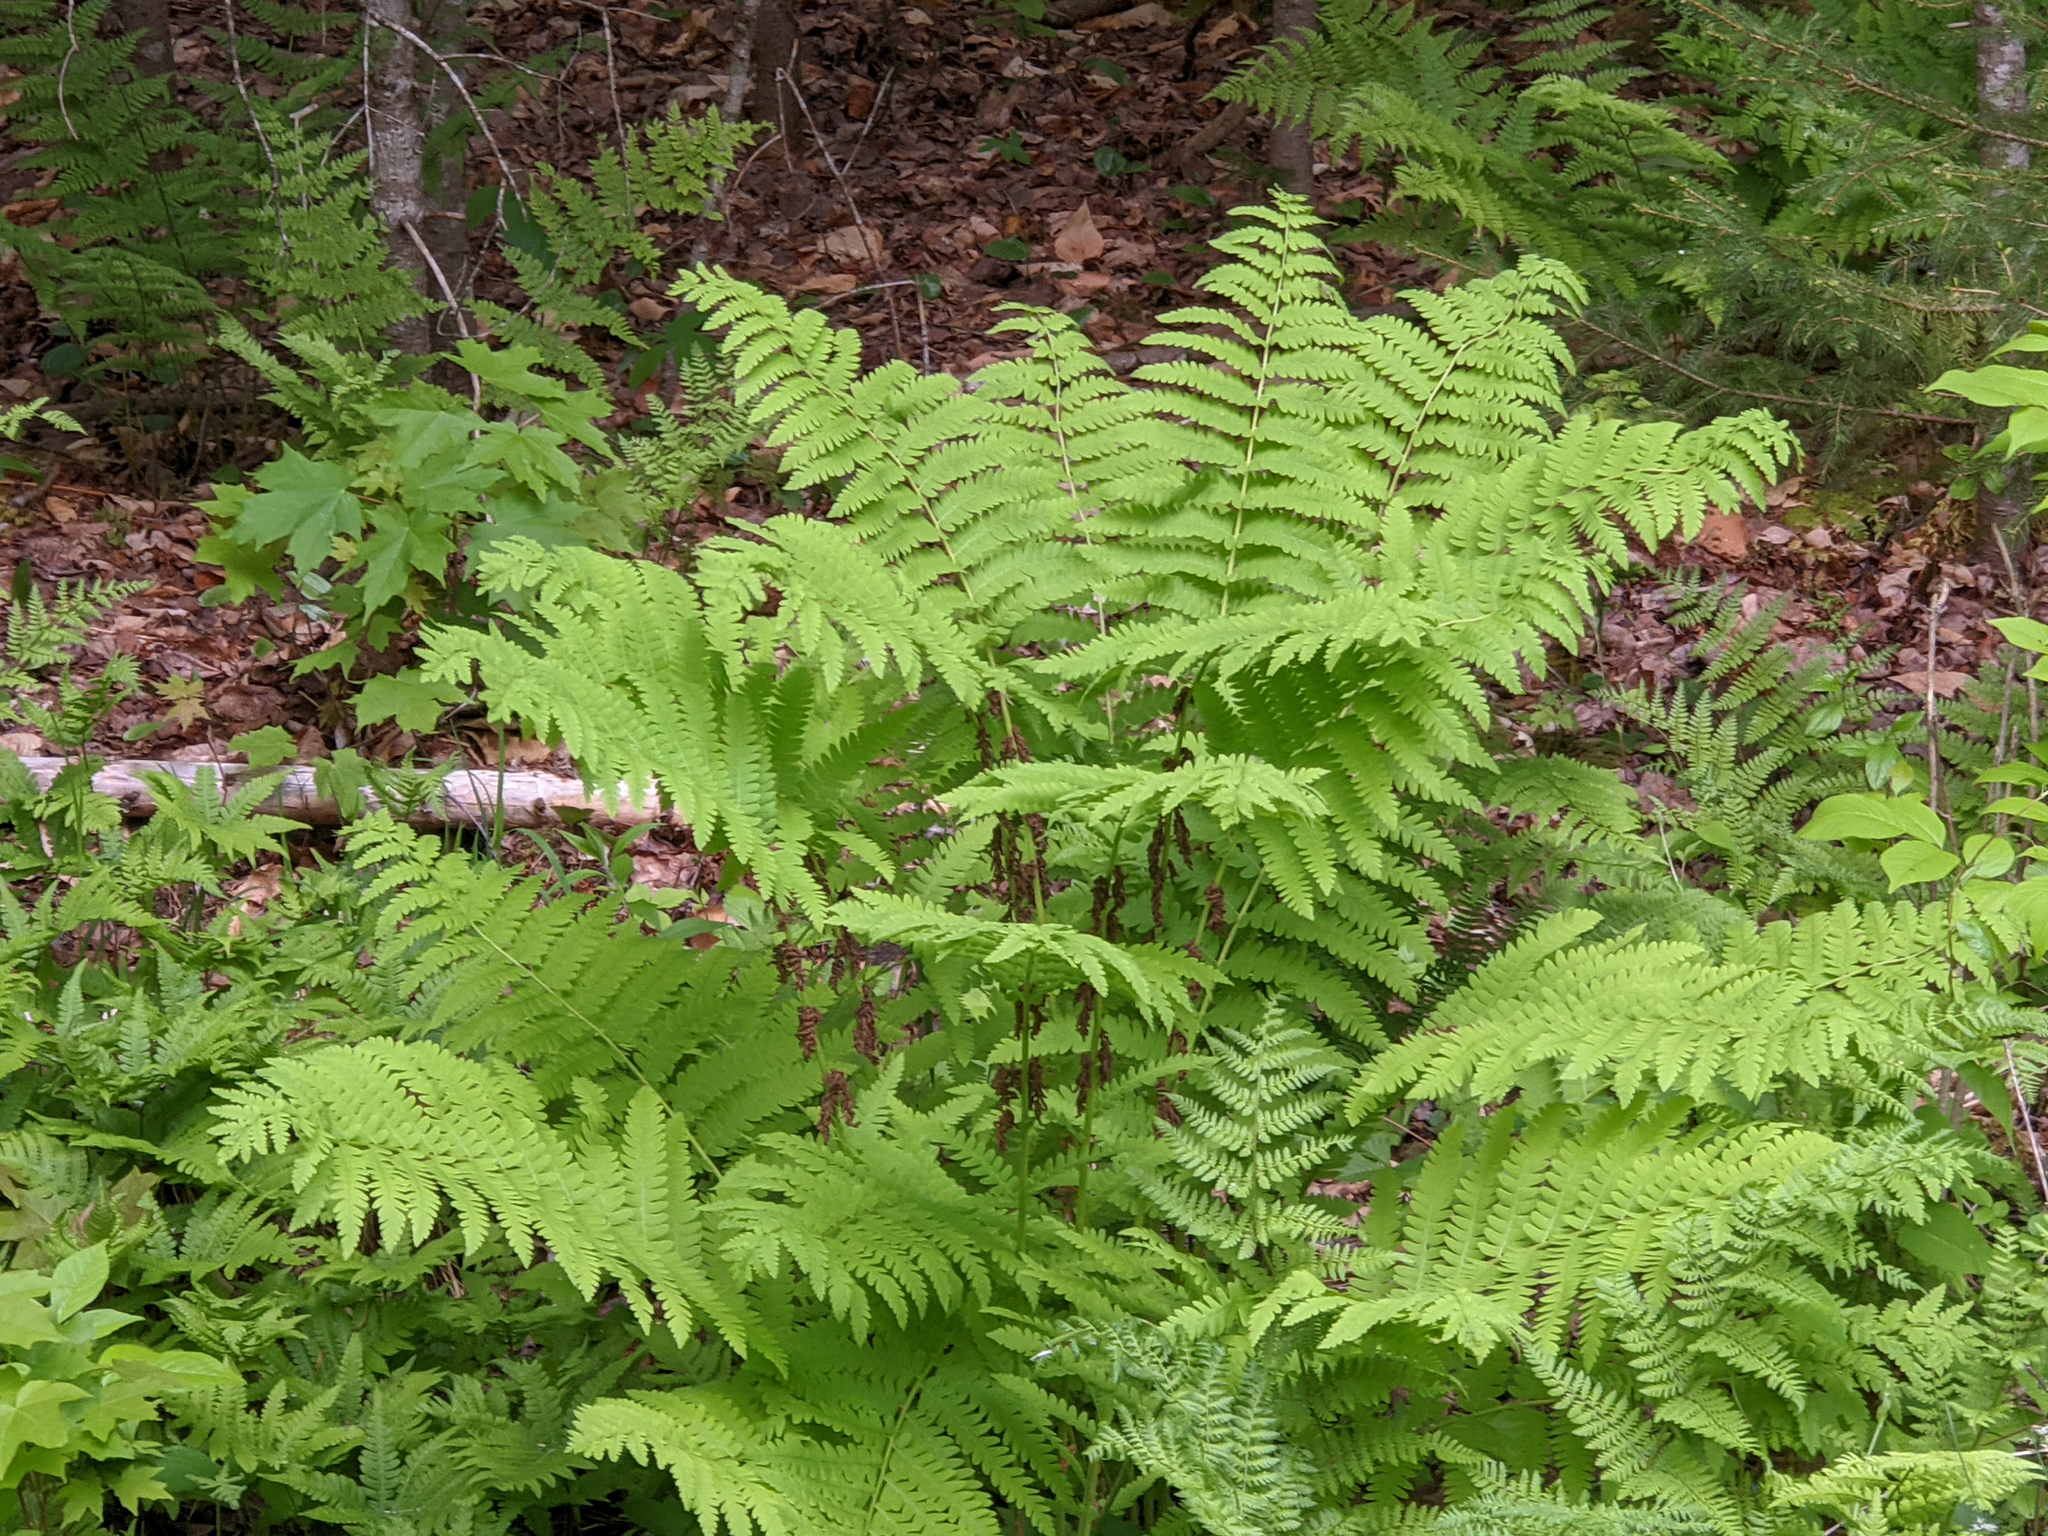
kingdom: Plantae
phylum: Tracheophyta
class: Polypodiopsida
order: Osmundales
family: Osmundaceae
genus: Claytosmunda
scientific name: Claytosmunda claytoniana
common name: Clayton's fern
